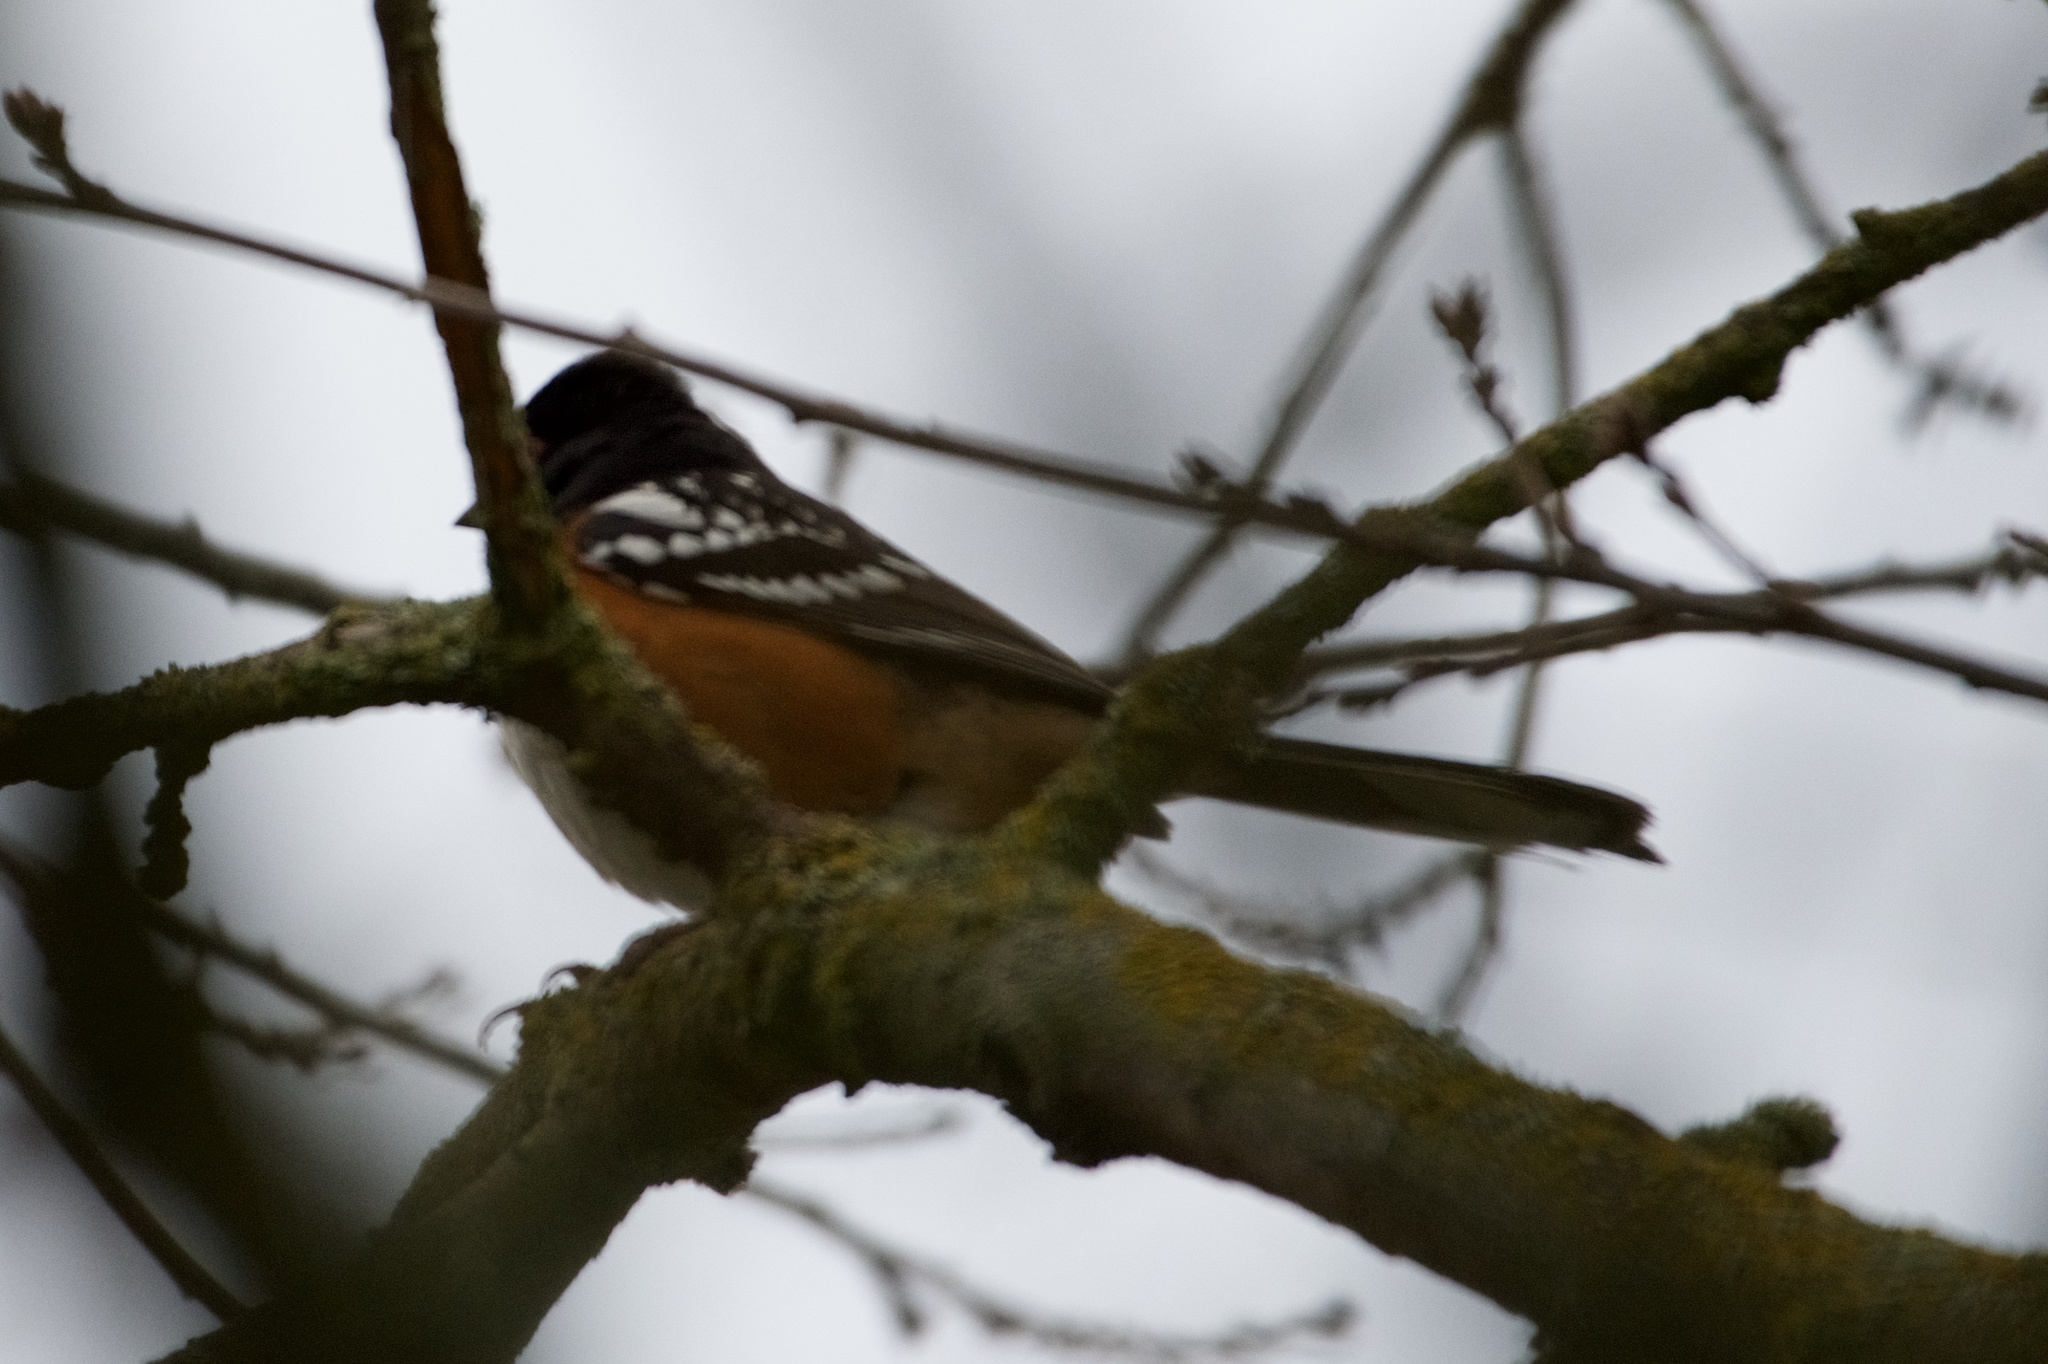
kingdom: Animalia
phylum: Chordata
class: Aves
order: Passeriformes
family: Passerellidae
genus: Pipilo
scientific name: Pipilo maculatus
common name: Spotted towhee
